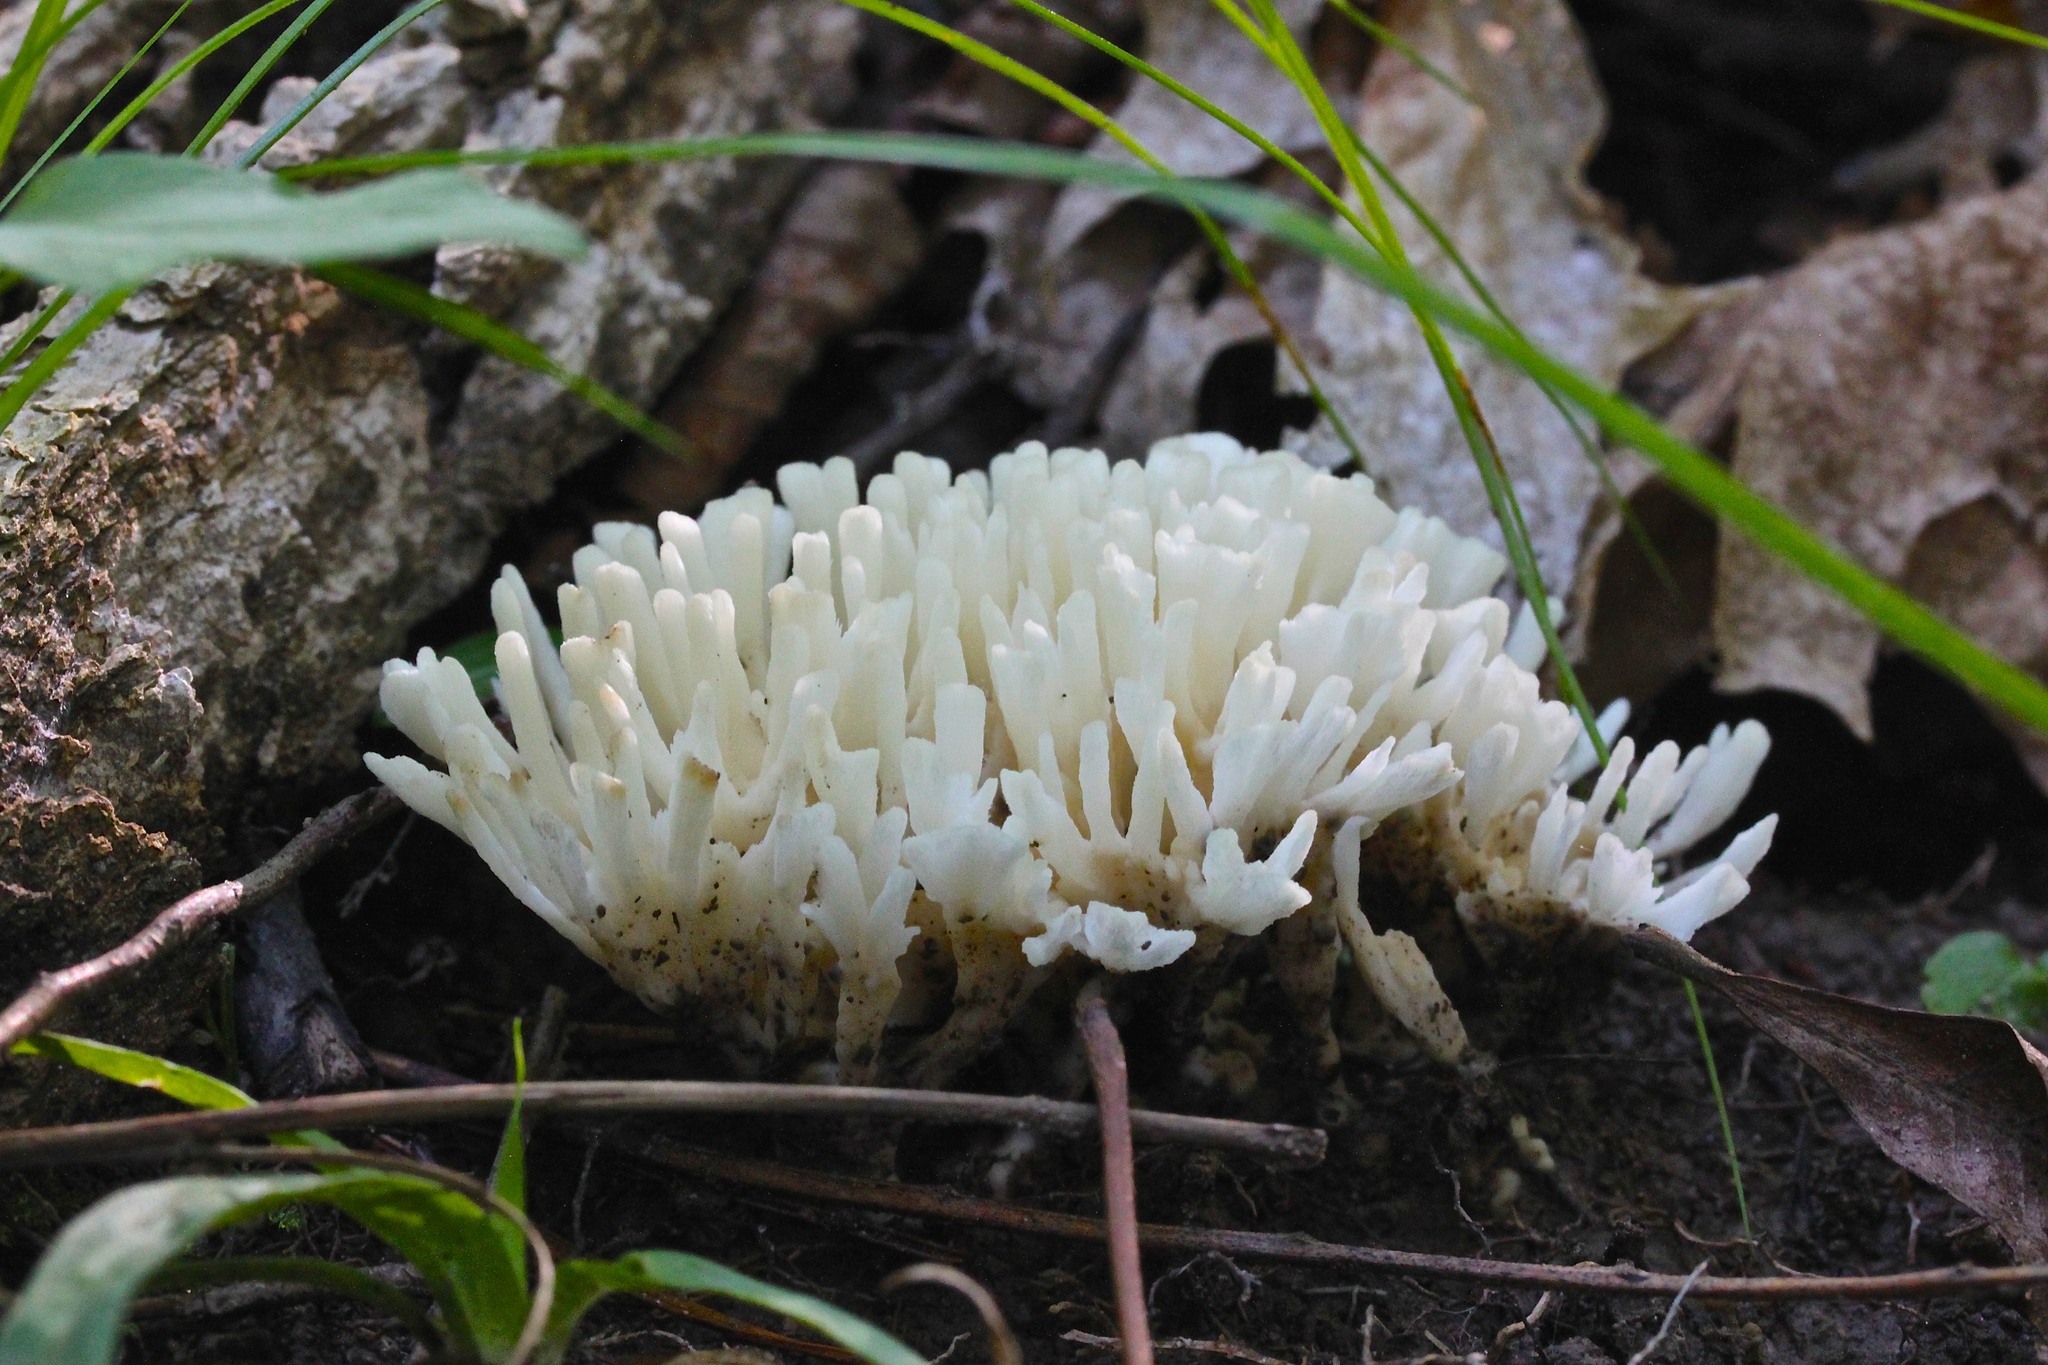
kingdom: Fungi
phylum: Basidiomycota
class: Agaricomycetes
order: Sebacinales
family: Sebacinaceae
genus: Sebacina
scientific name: Sebacina schweinitzii
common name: Jellied false coral fungus
